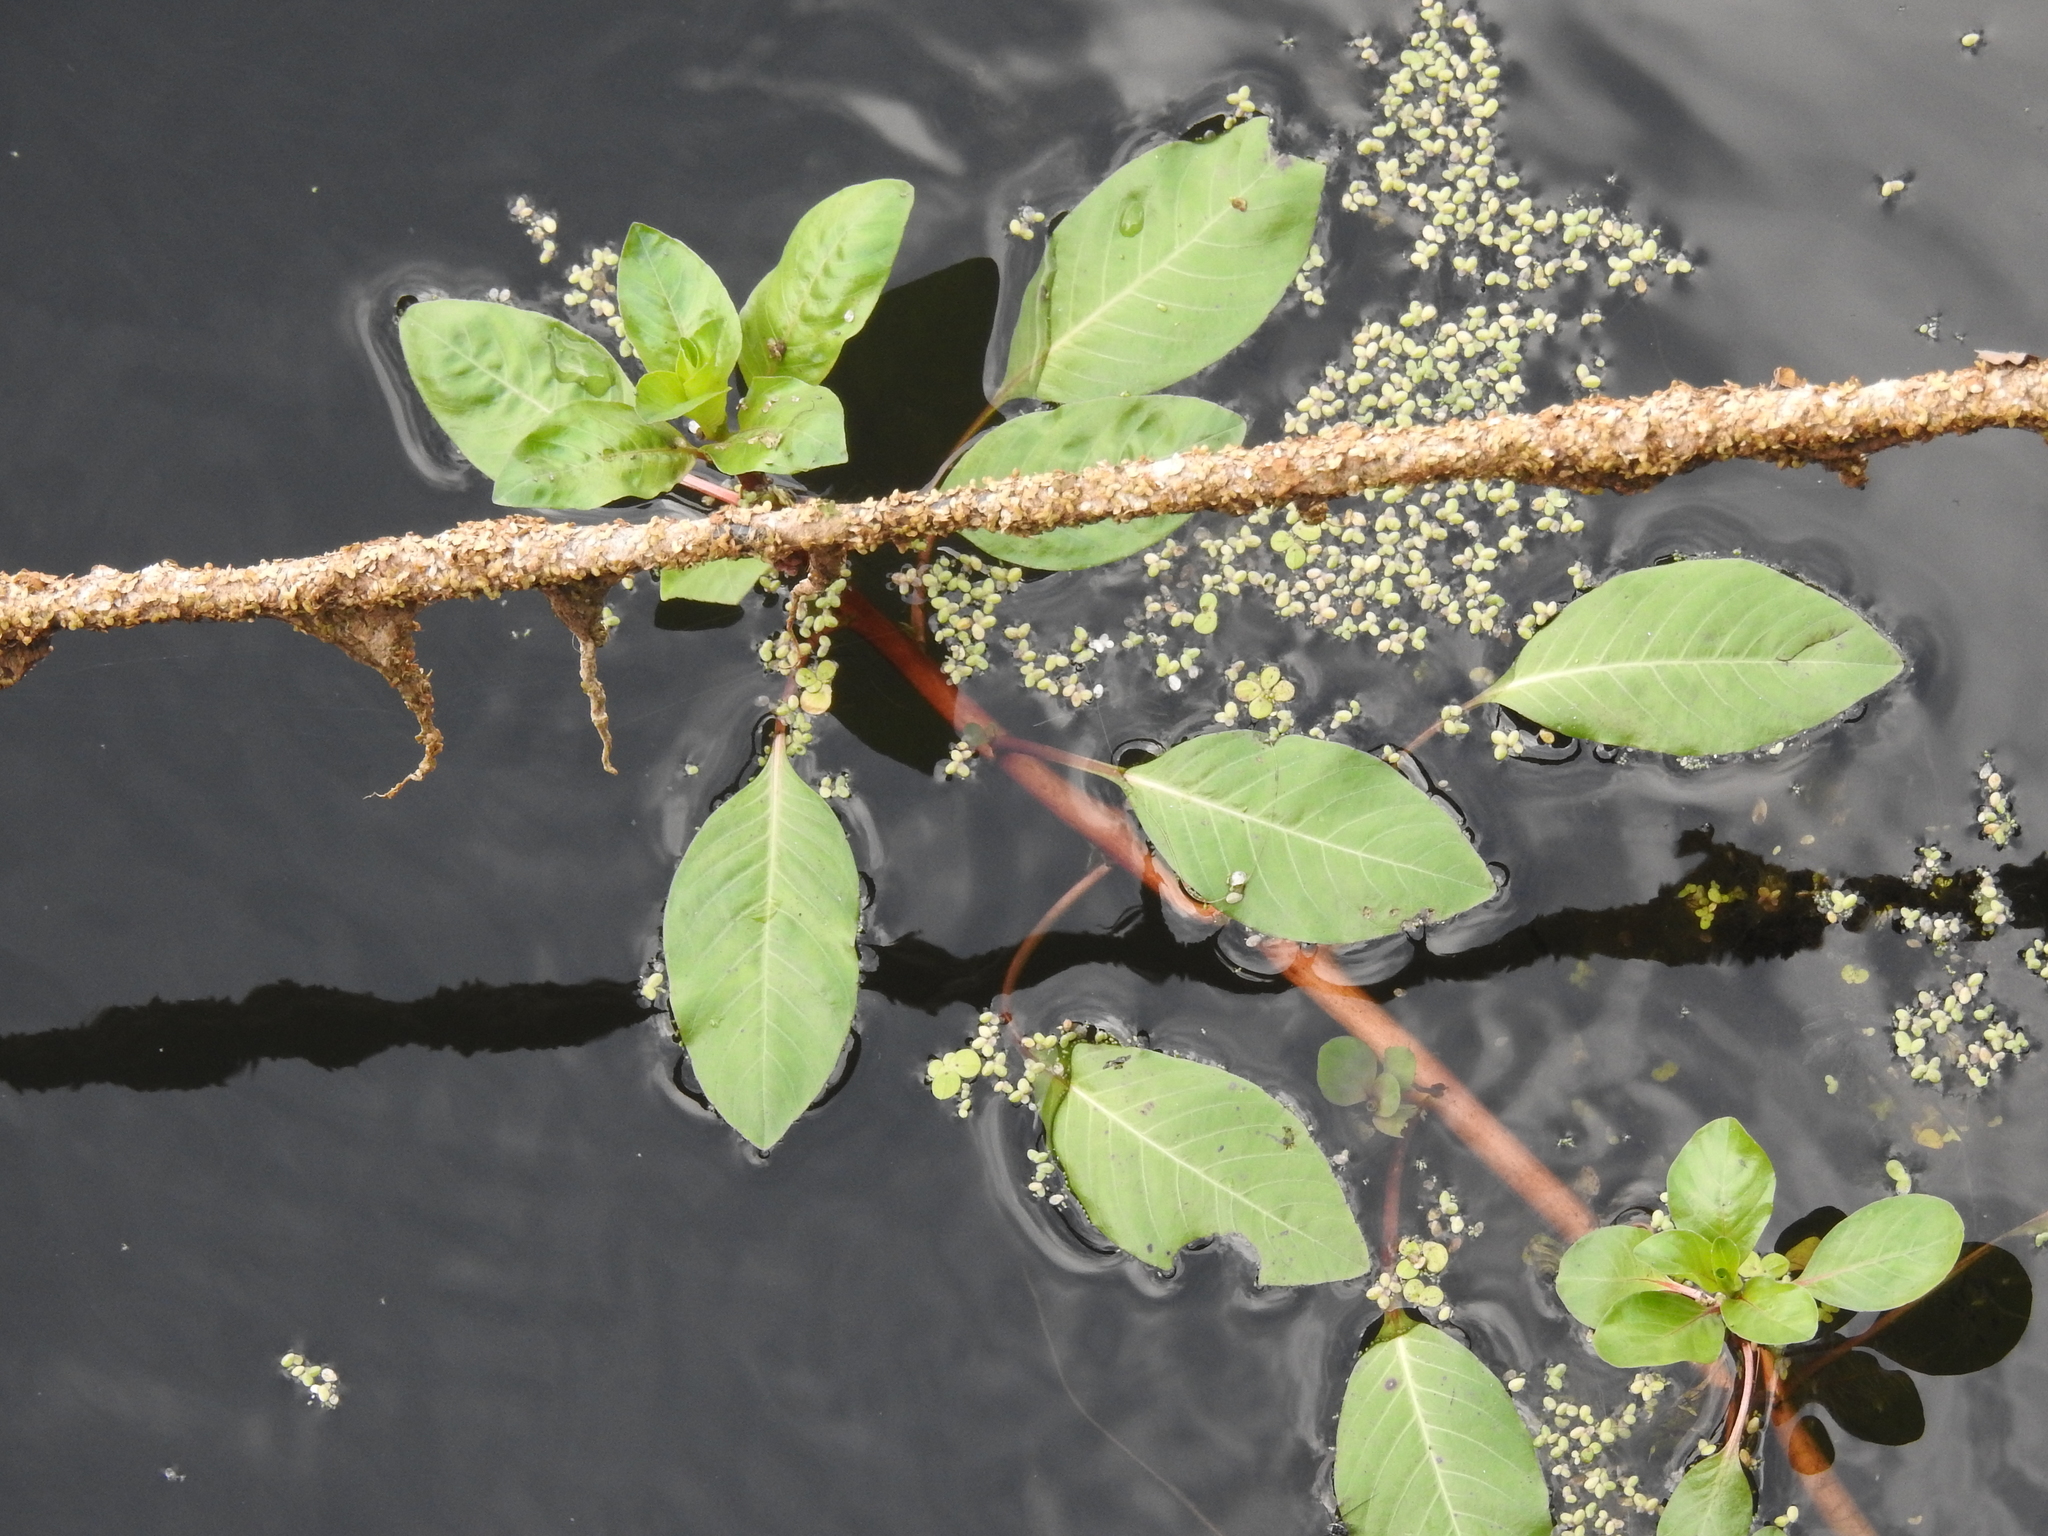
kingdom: Plantae
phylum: Tracheophyta
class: Magnoliopsida
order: Myrtales
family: Onagraceae
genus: Ludwigia
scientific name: Ludwigia peploides
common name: Floating primrose-willow
